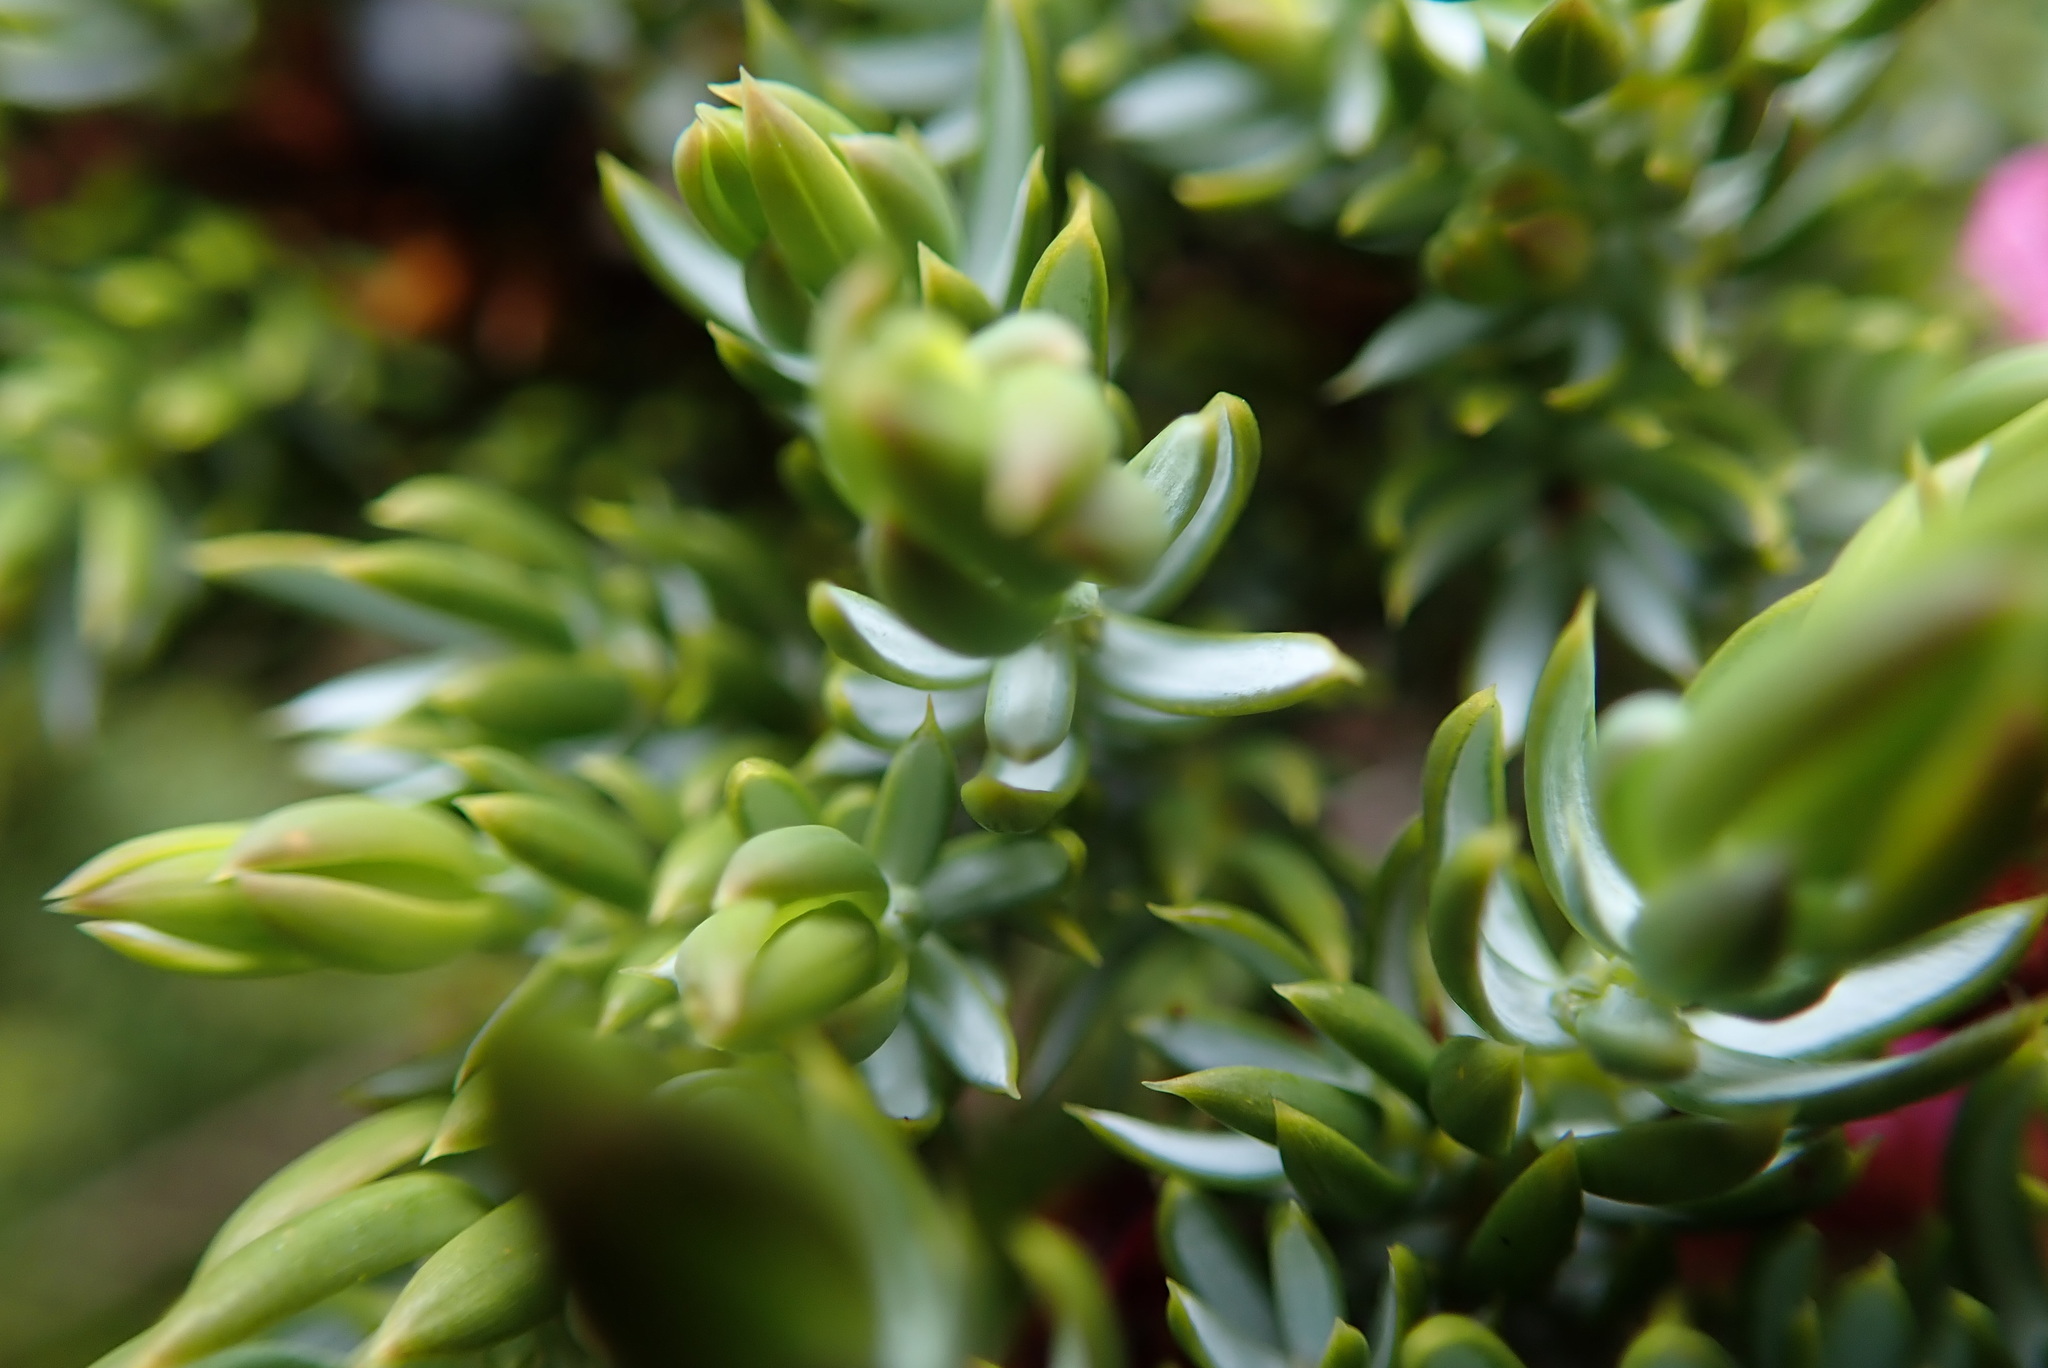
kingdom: Plantae
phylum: Tracheophyta
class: Pinopsida
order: Pinales
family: Cupressaceae
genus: Juniperus
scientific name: Juniperus communis
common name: Common juniper
